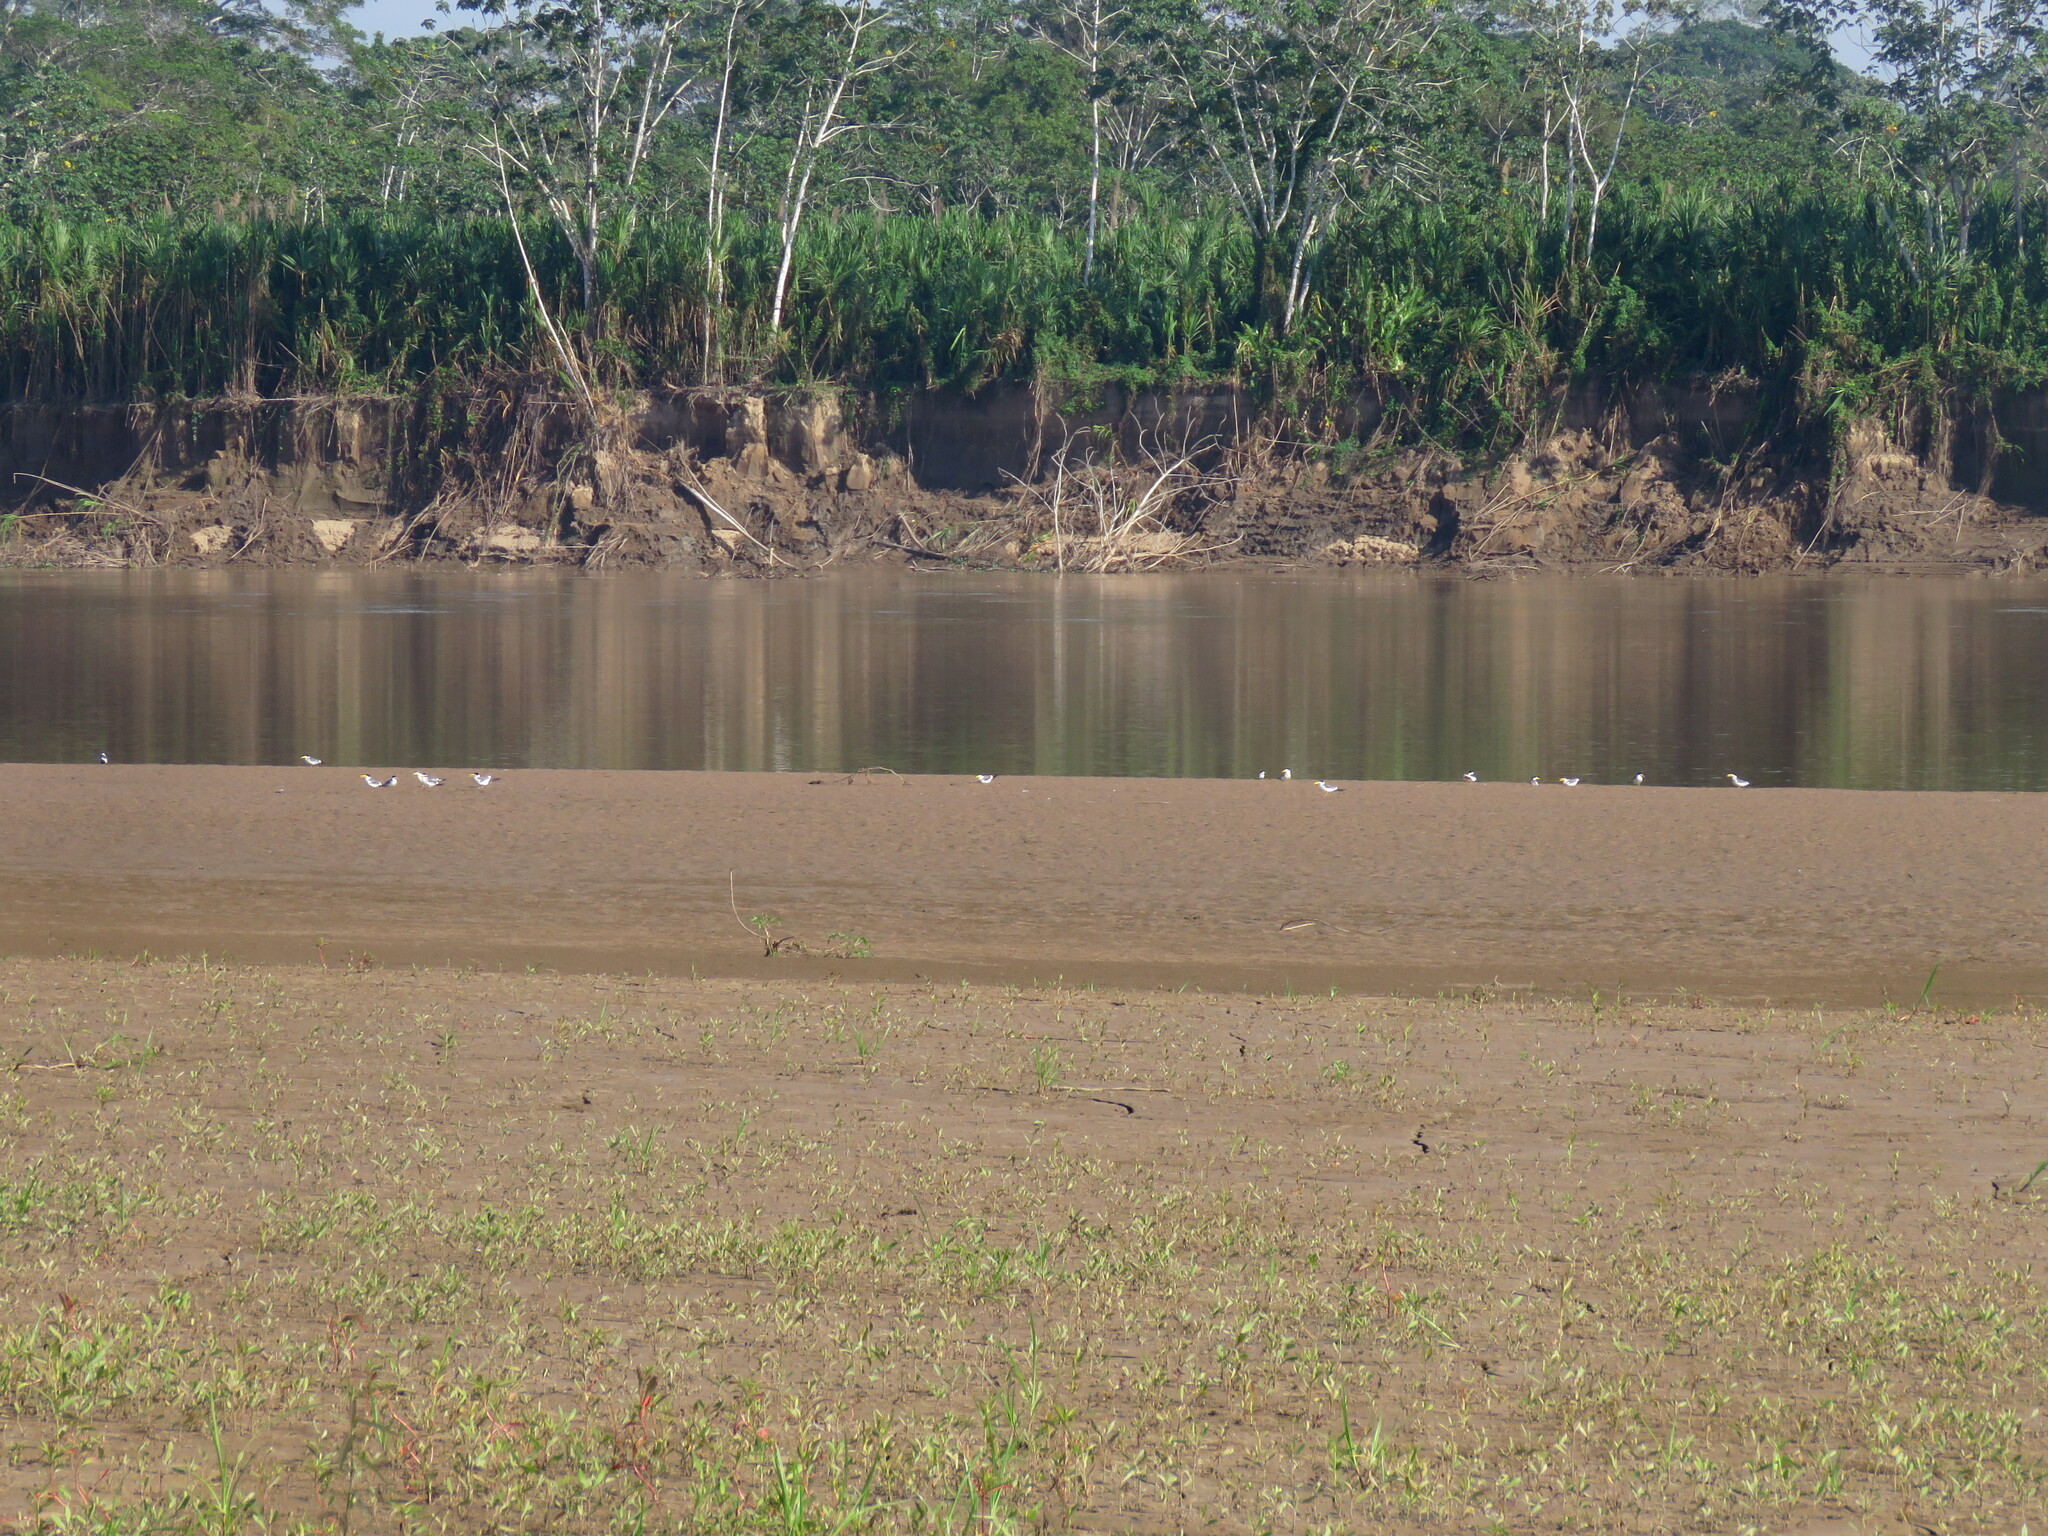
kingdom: Animalia
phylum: Chordata
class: Aves
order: Charadriiformes
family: Laridae
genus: Phaetusa
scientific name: Phaetusa simplex
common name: Large-billed tern
